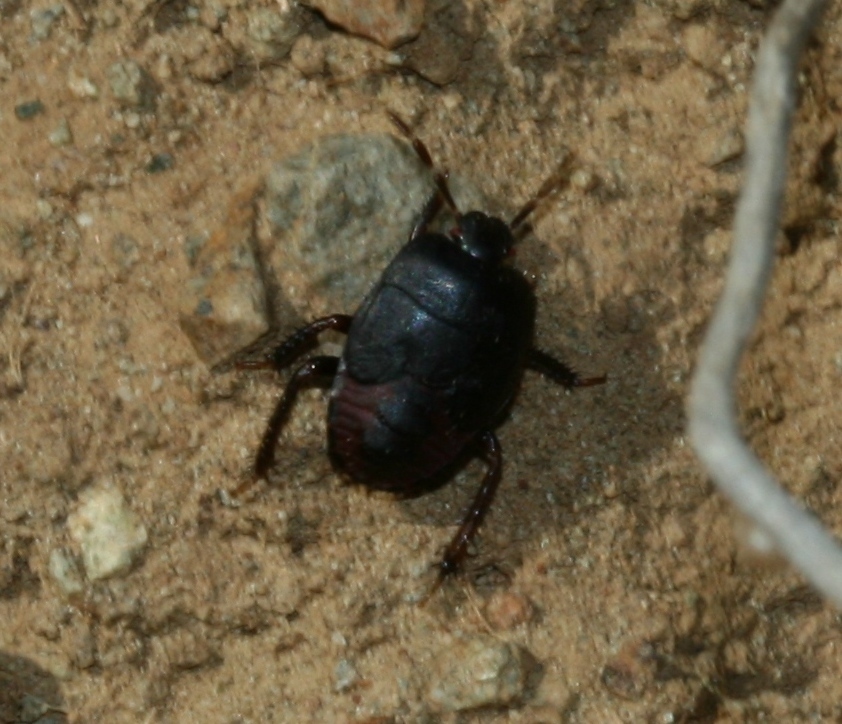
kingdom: Animalia
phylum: Arthropoda
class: Insecta
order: Hemiptera
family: Cydnidae
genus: Cydnus
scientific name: Cydnus aterrimus
